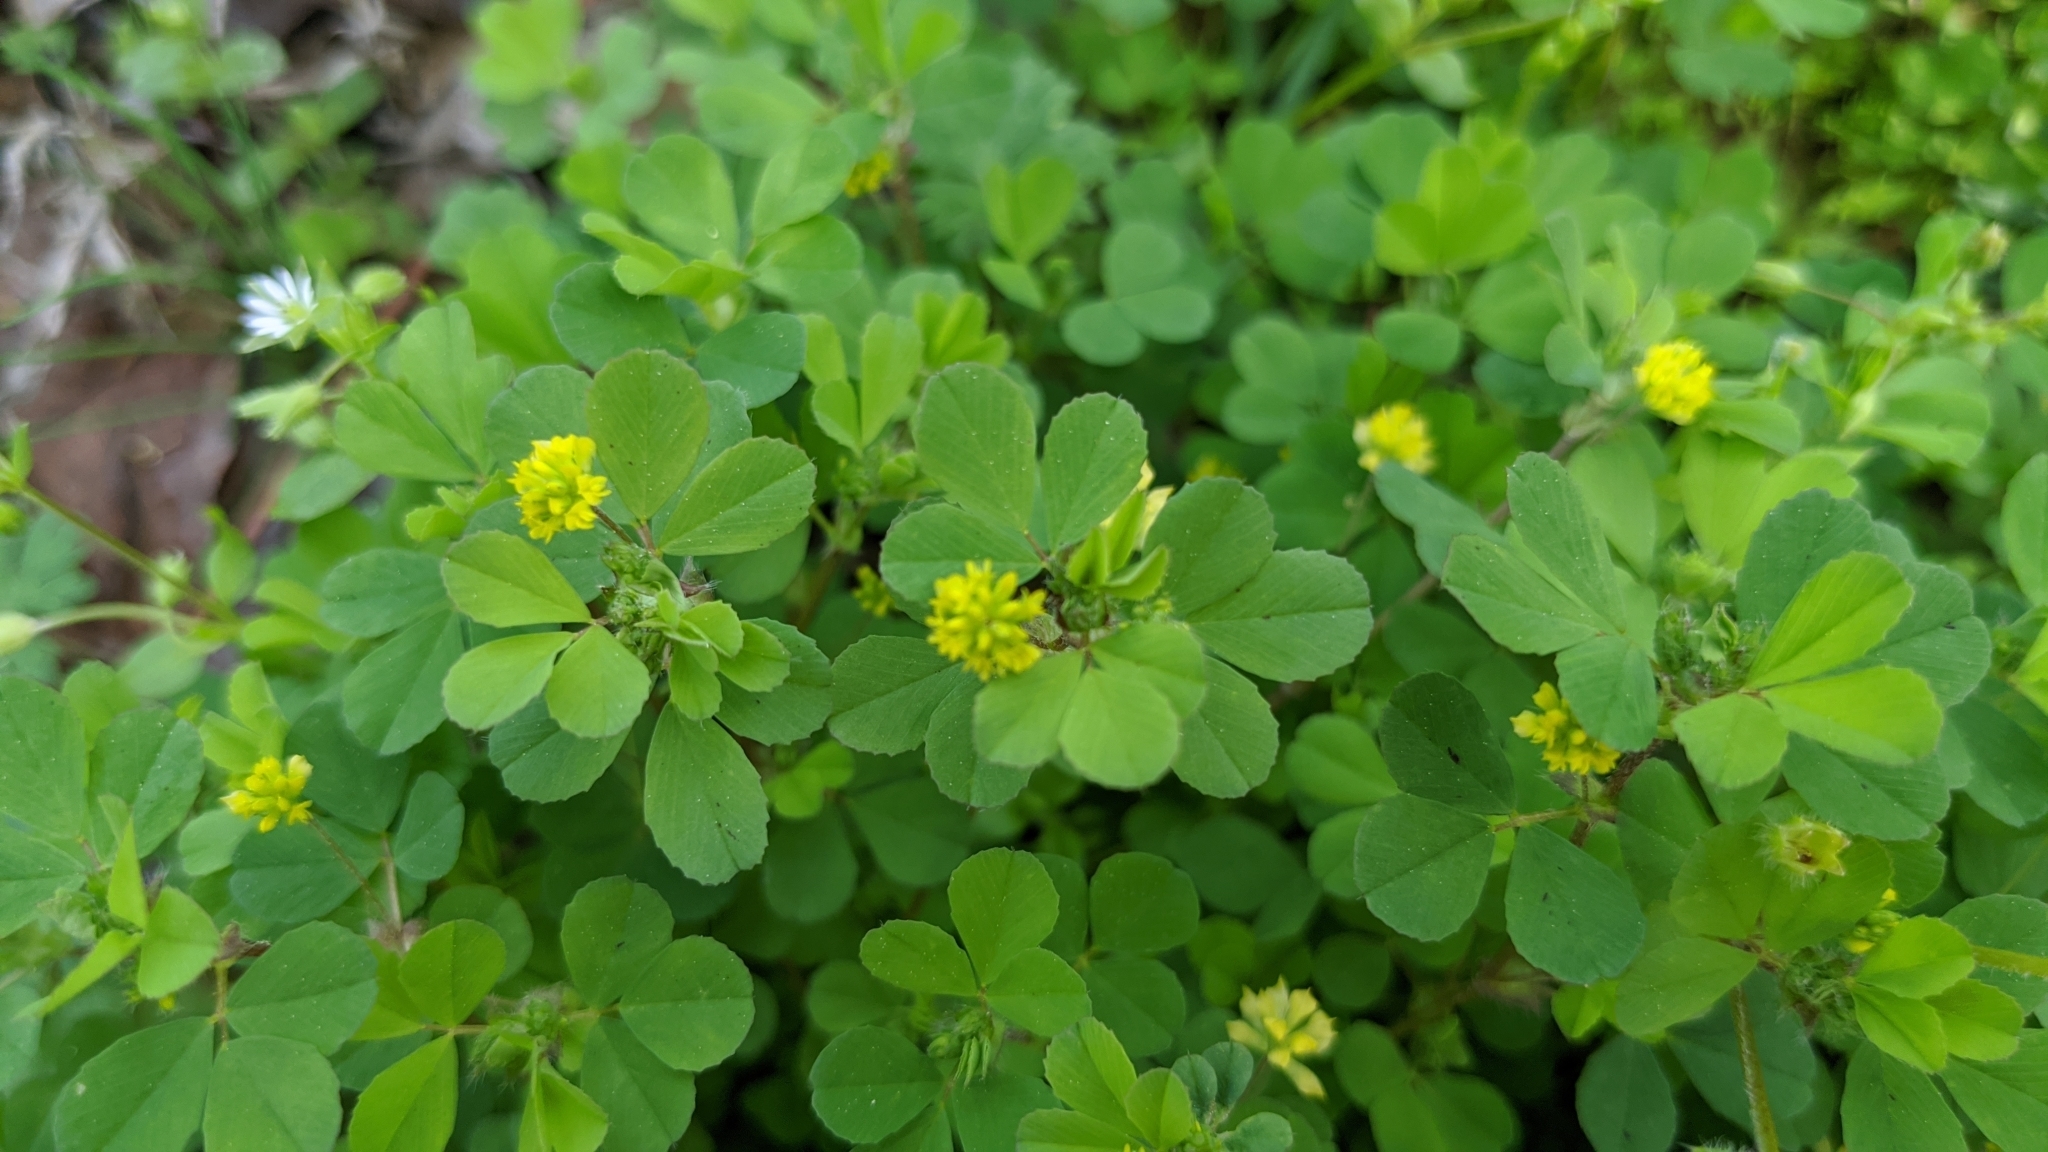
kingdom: Plantae
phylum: Tracheophyta
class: Magnoliopsida
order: Fabales
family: Fabaceae
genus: Trifolium
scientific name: Trifolium dubium
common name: Suckling clover
